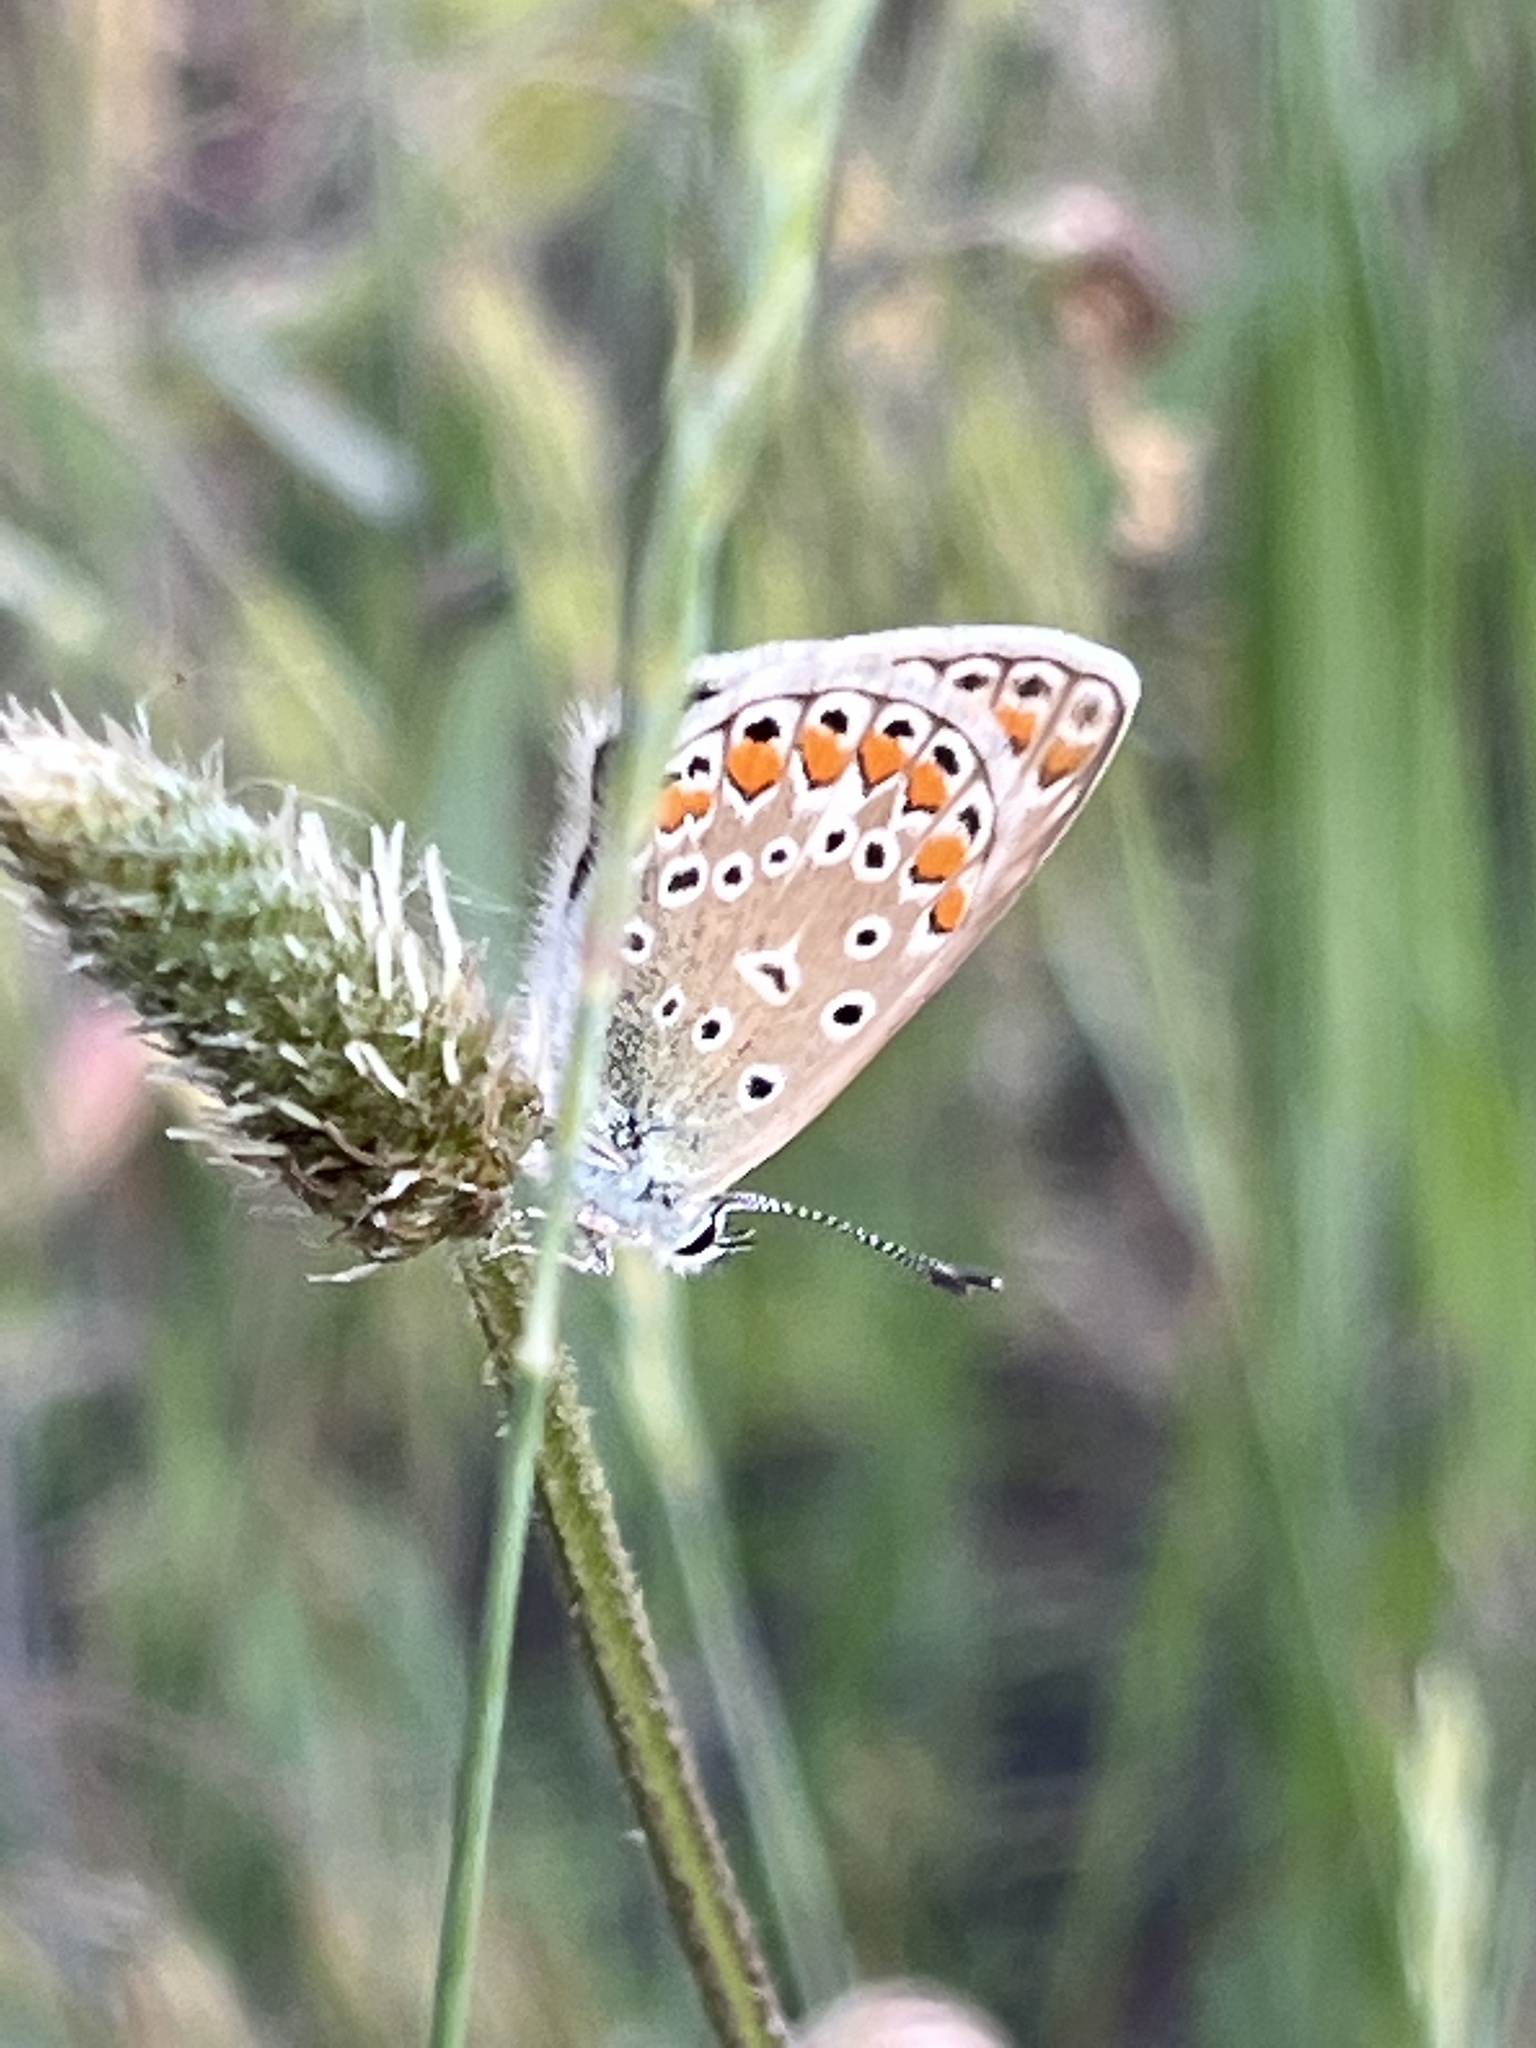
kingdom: Animalia
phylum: Arthropoda
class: Insecta
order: Lepidoptera
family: Lycaenidae
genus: Polyommatus
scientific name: Polyommatus icarus
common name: Common blue
